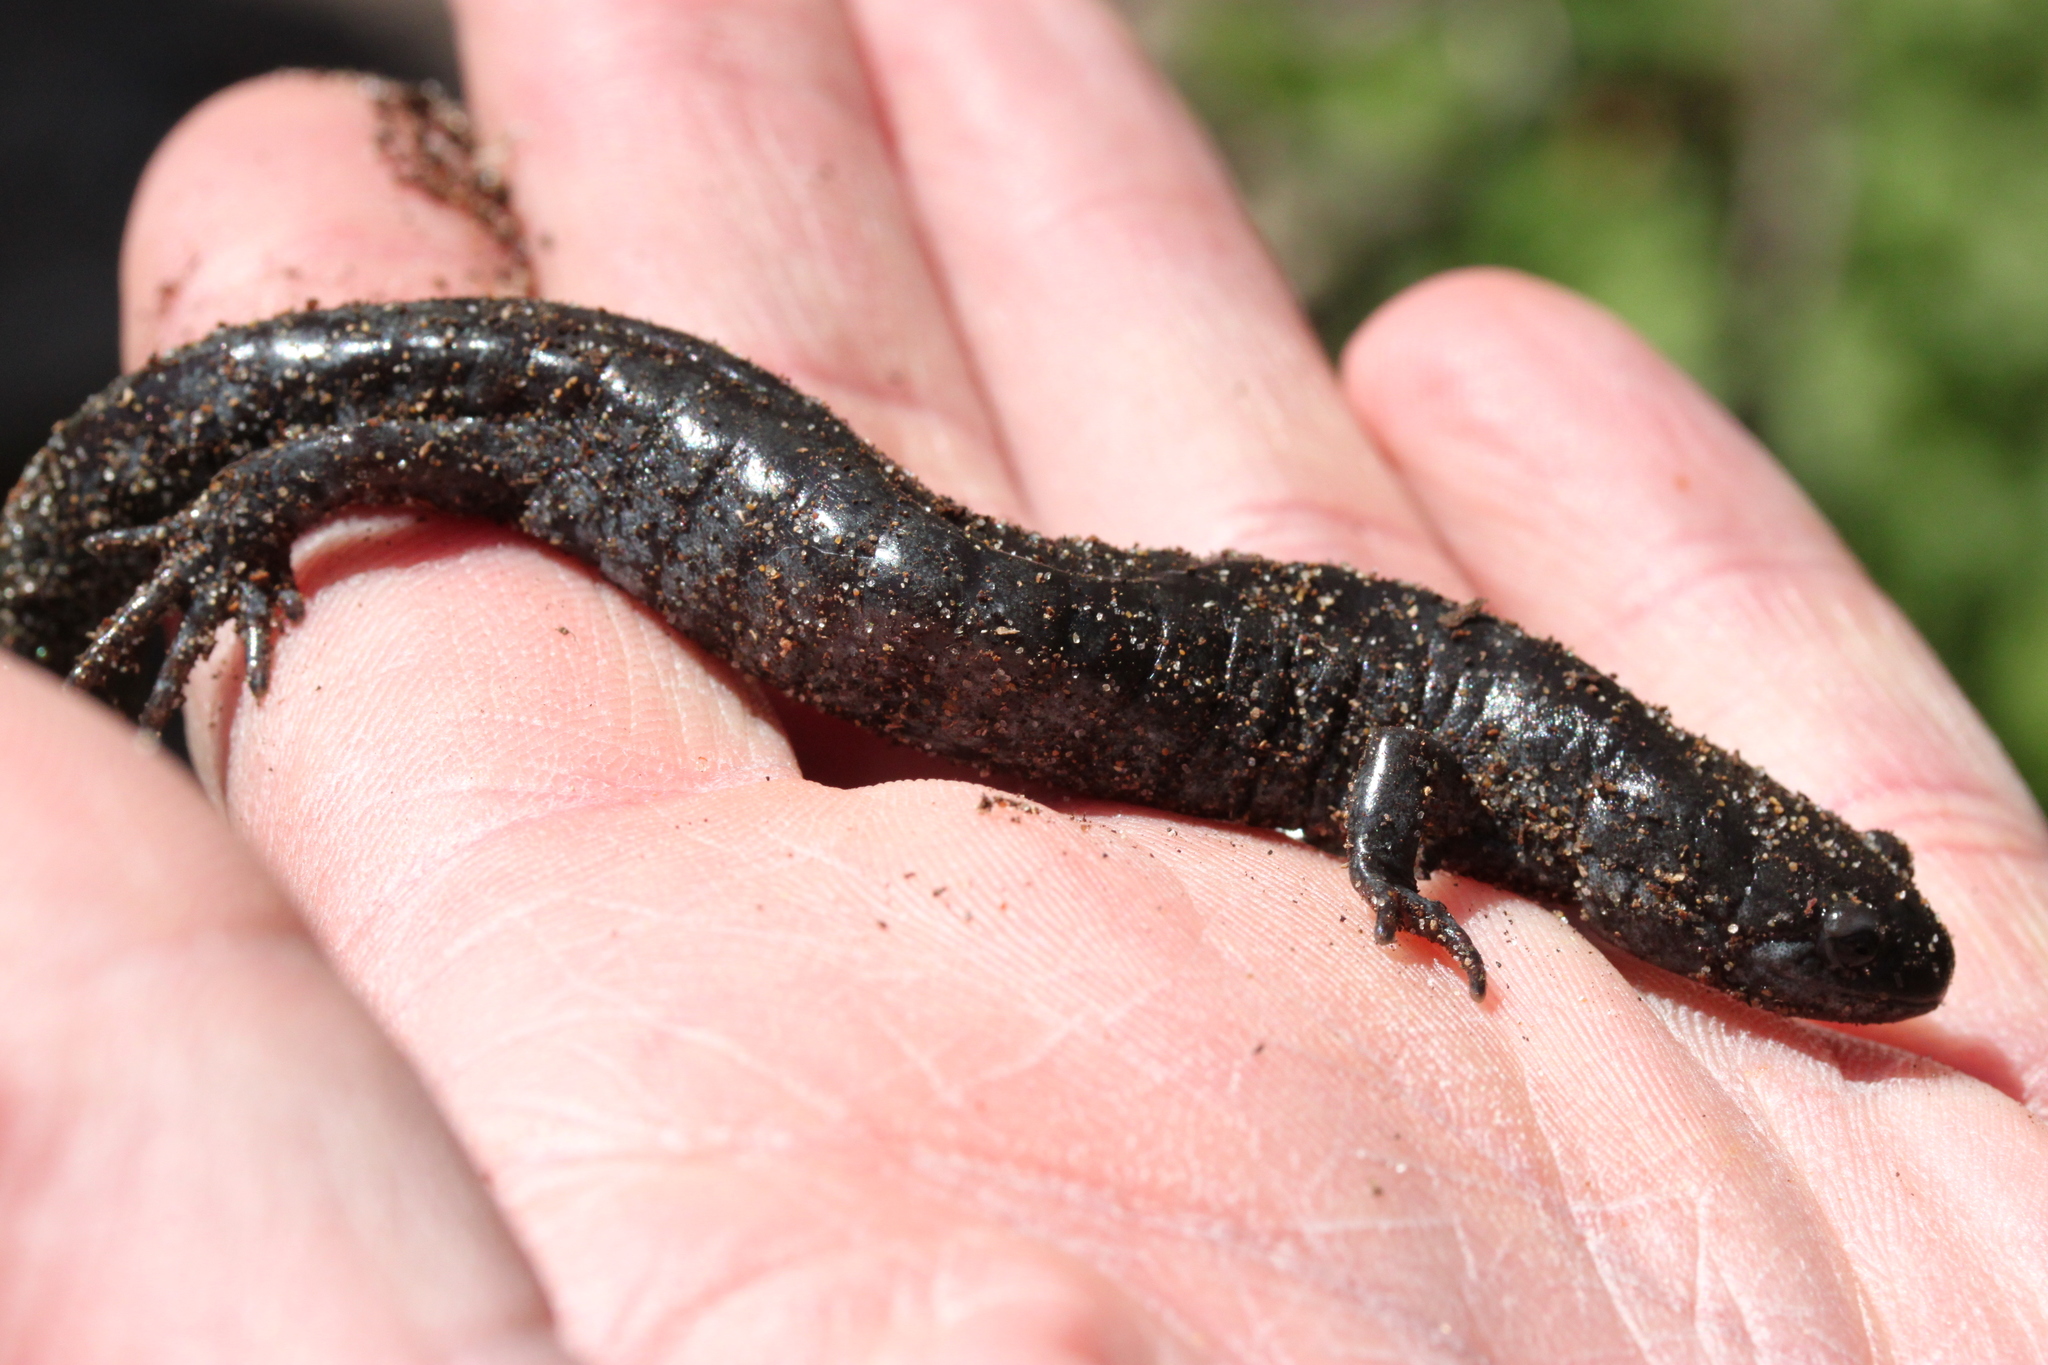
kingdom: Animalia
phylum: Chordata
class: Amphibia
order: Caudata
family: Ambystomatidae
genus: Ambystoma
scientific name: Ambystoma unisexual
